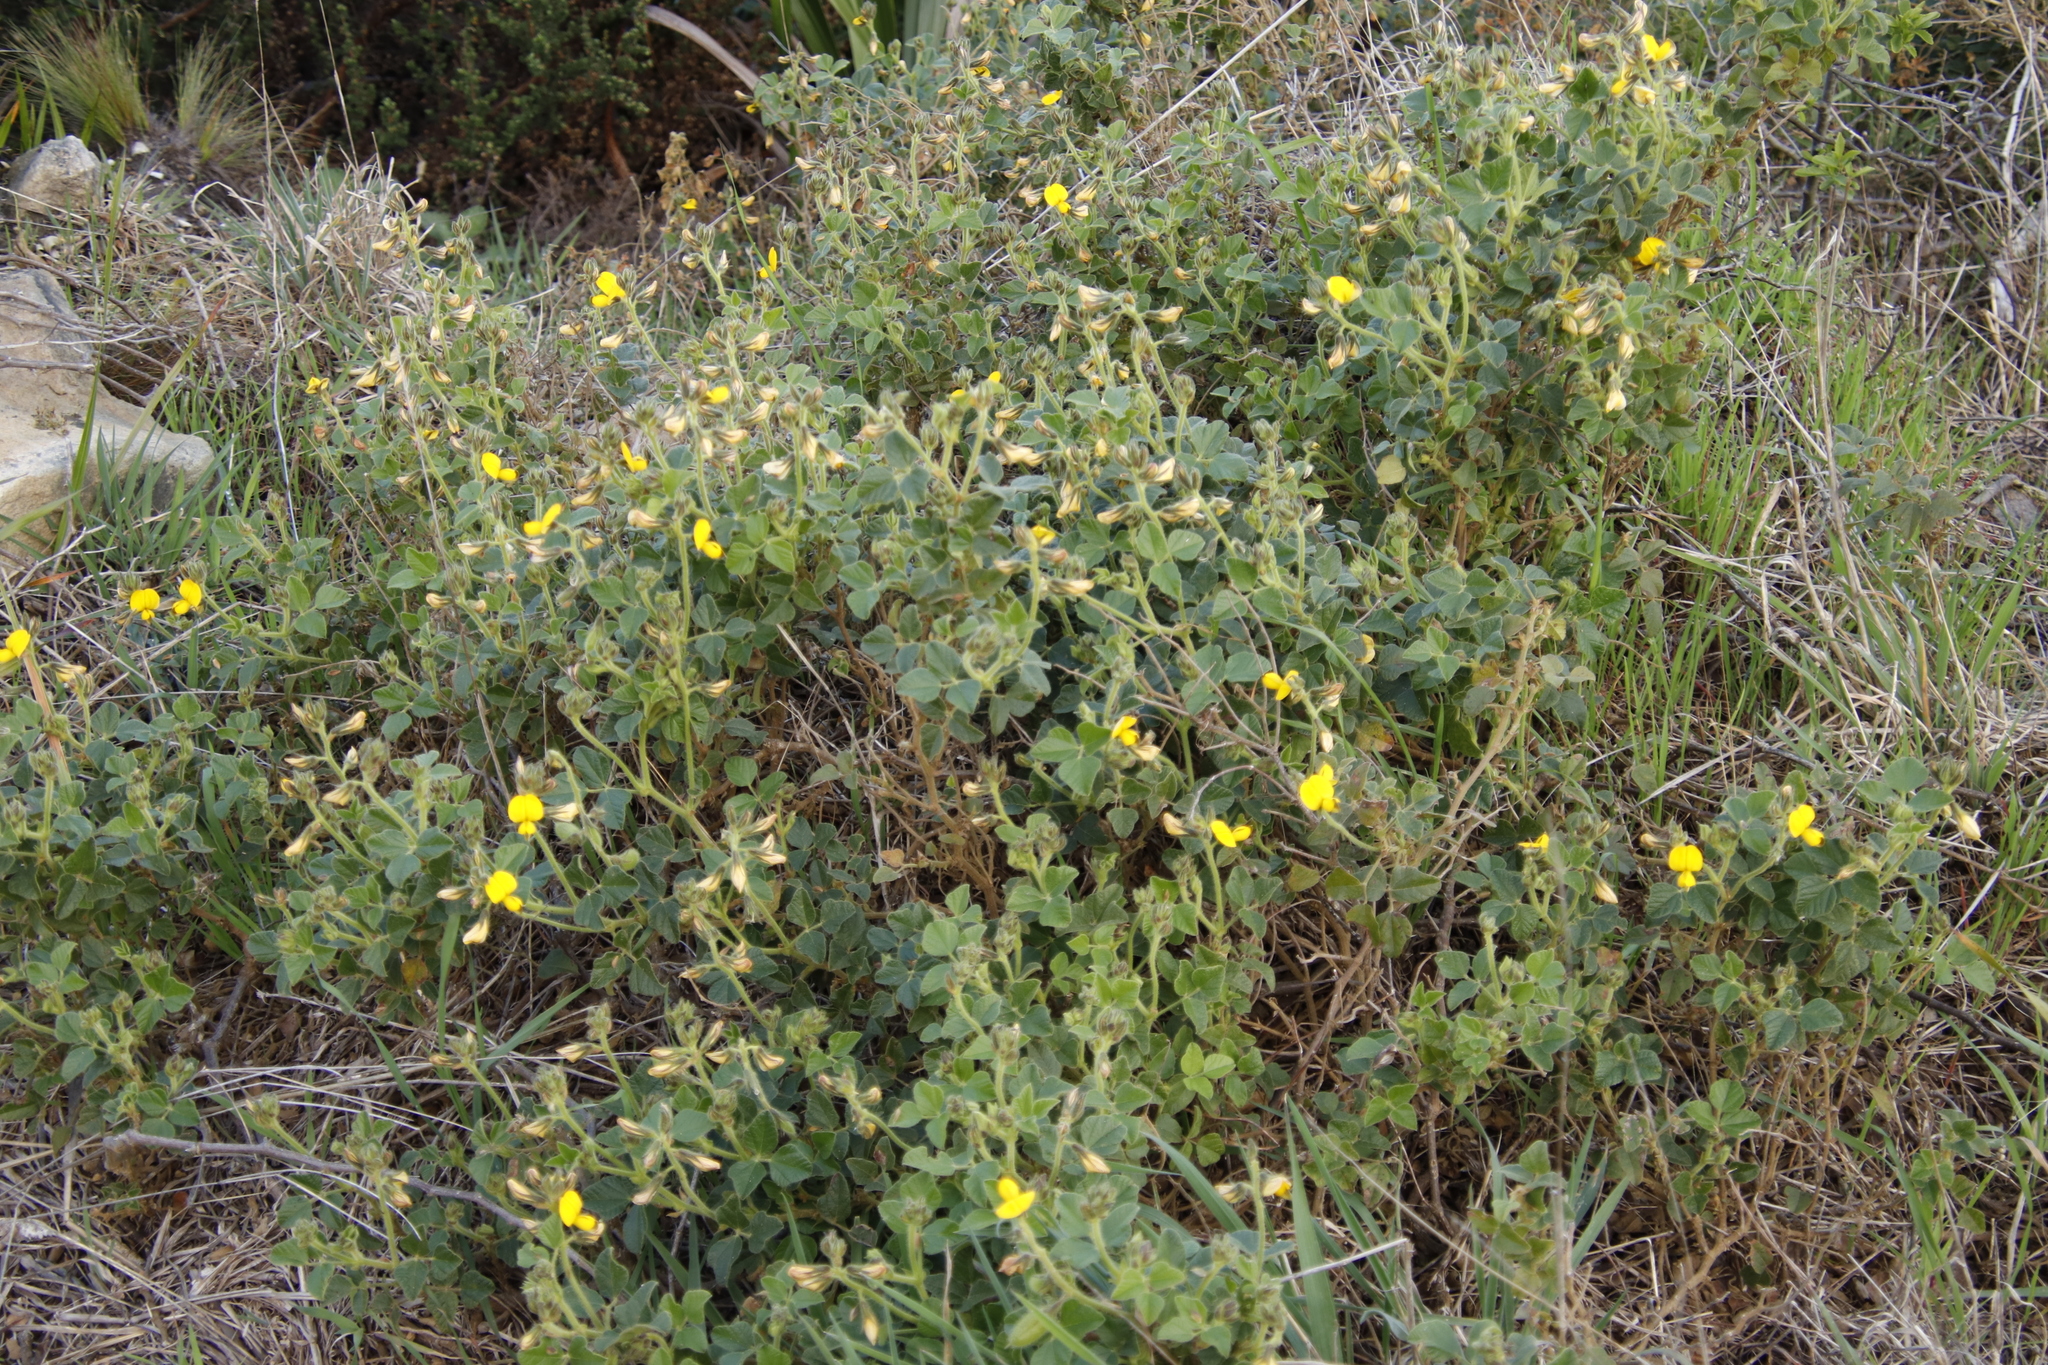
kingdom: Plantae
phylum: Tracheophyta
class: Magnoliopsida
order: Fabales
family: Fabaceae
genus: Bolusafra
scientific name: Bolusafra bituminosa
